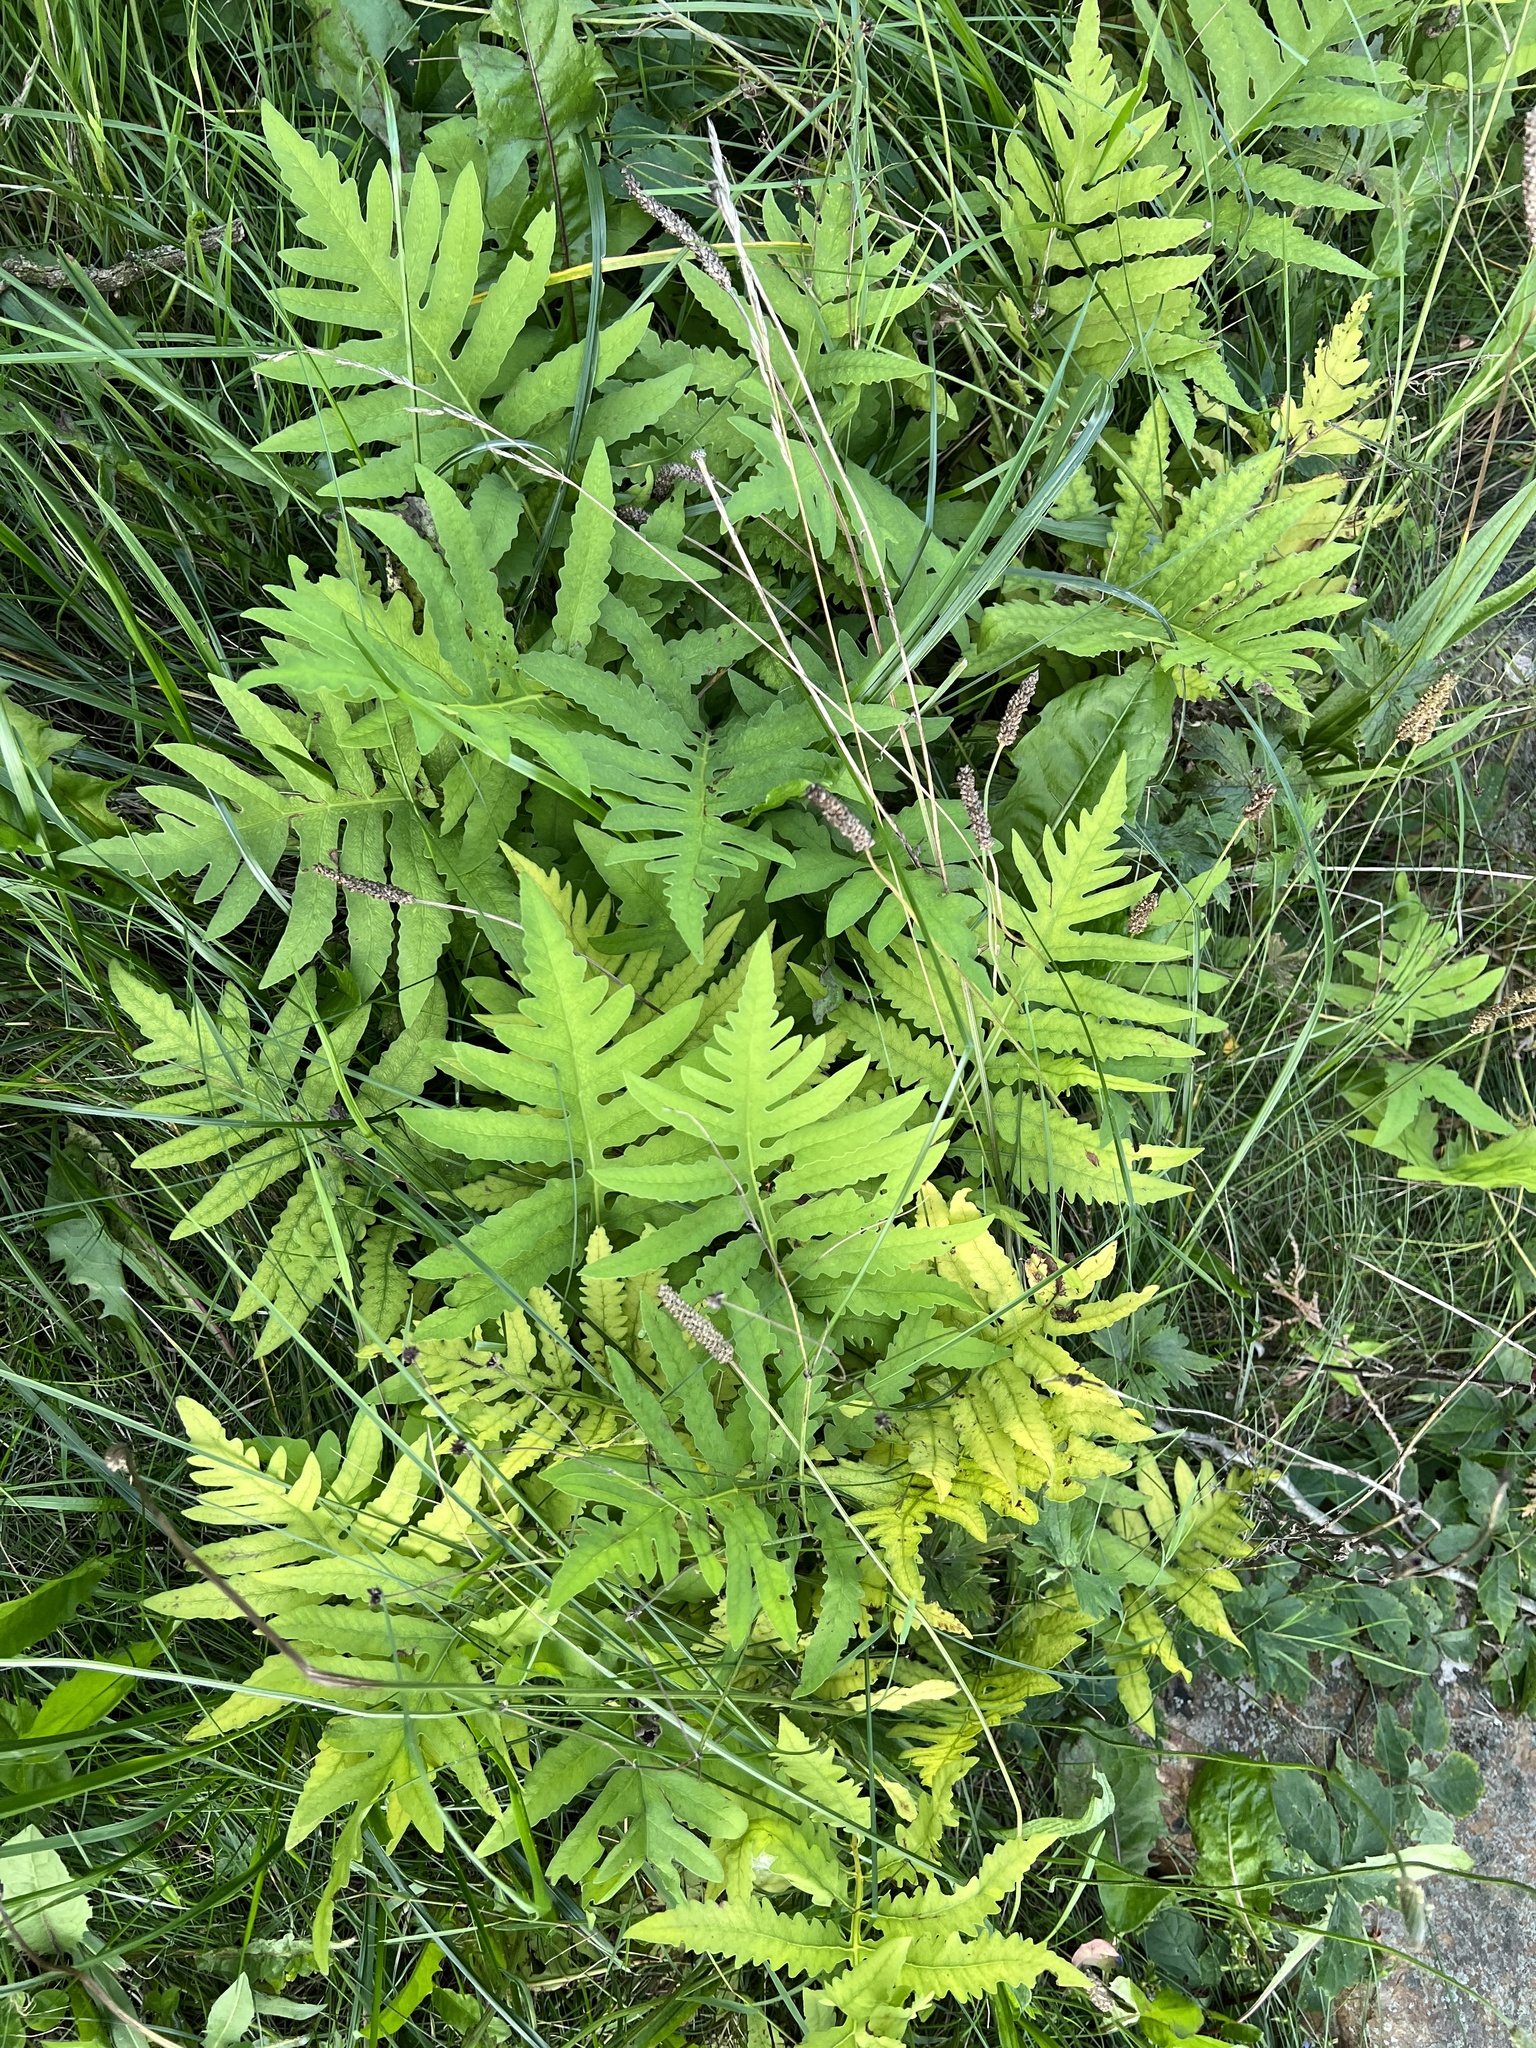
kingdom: Plantae
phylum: Tracheophyta
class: Polypodiopsida
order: Polypodiales
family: Onocleaceae
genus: Onoclea
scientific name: Onoclea sensibilis
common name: Sensitive fern
